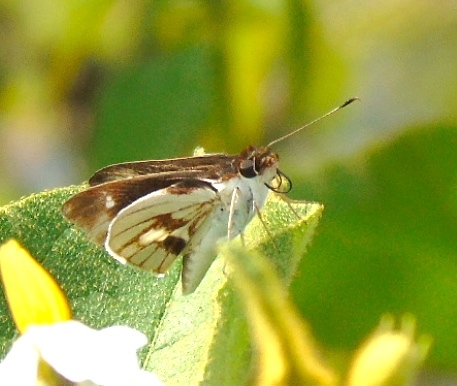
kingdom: Animalia
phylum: Arthropoda
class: Insecta
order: Lepidoptera
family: Hesperiidae
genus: Troyus
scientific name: Troyus fantasos
